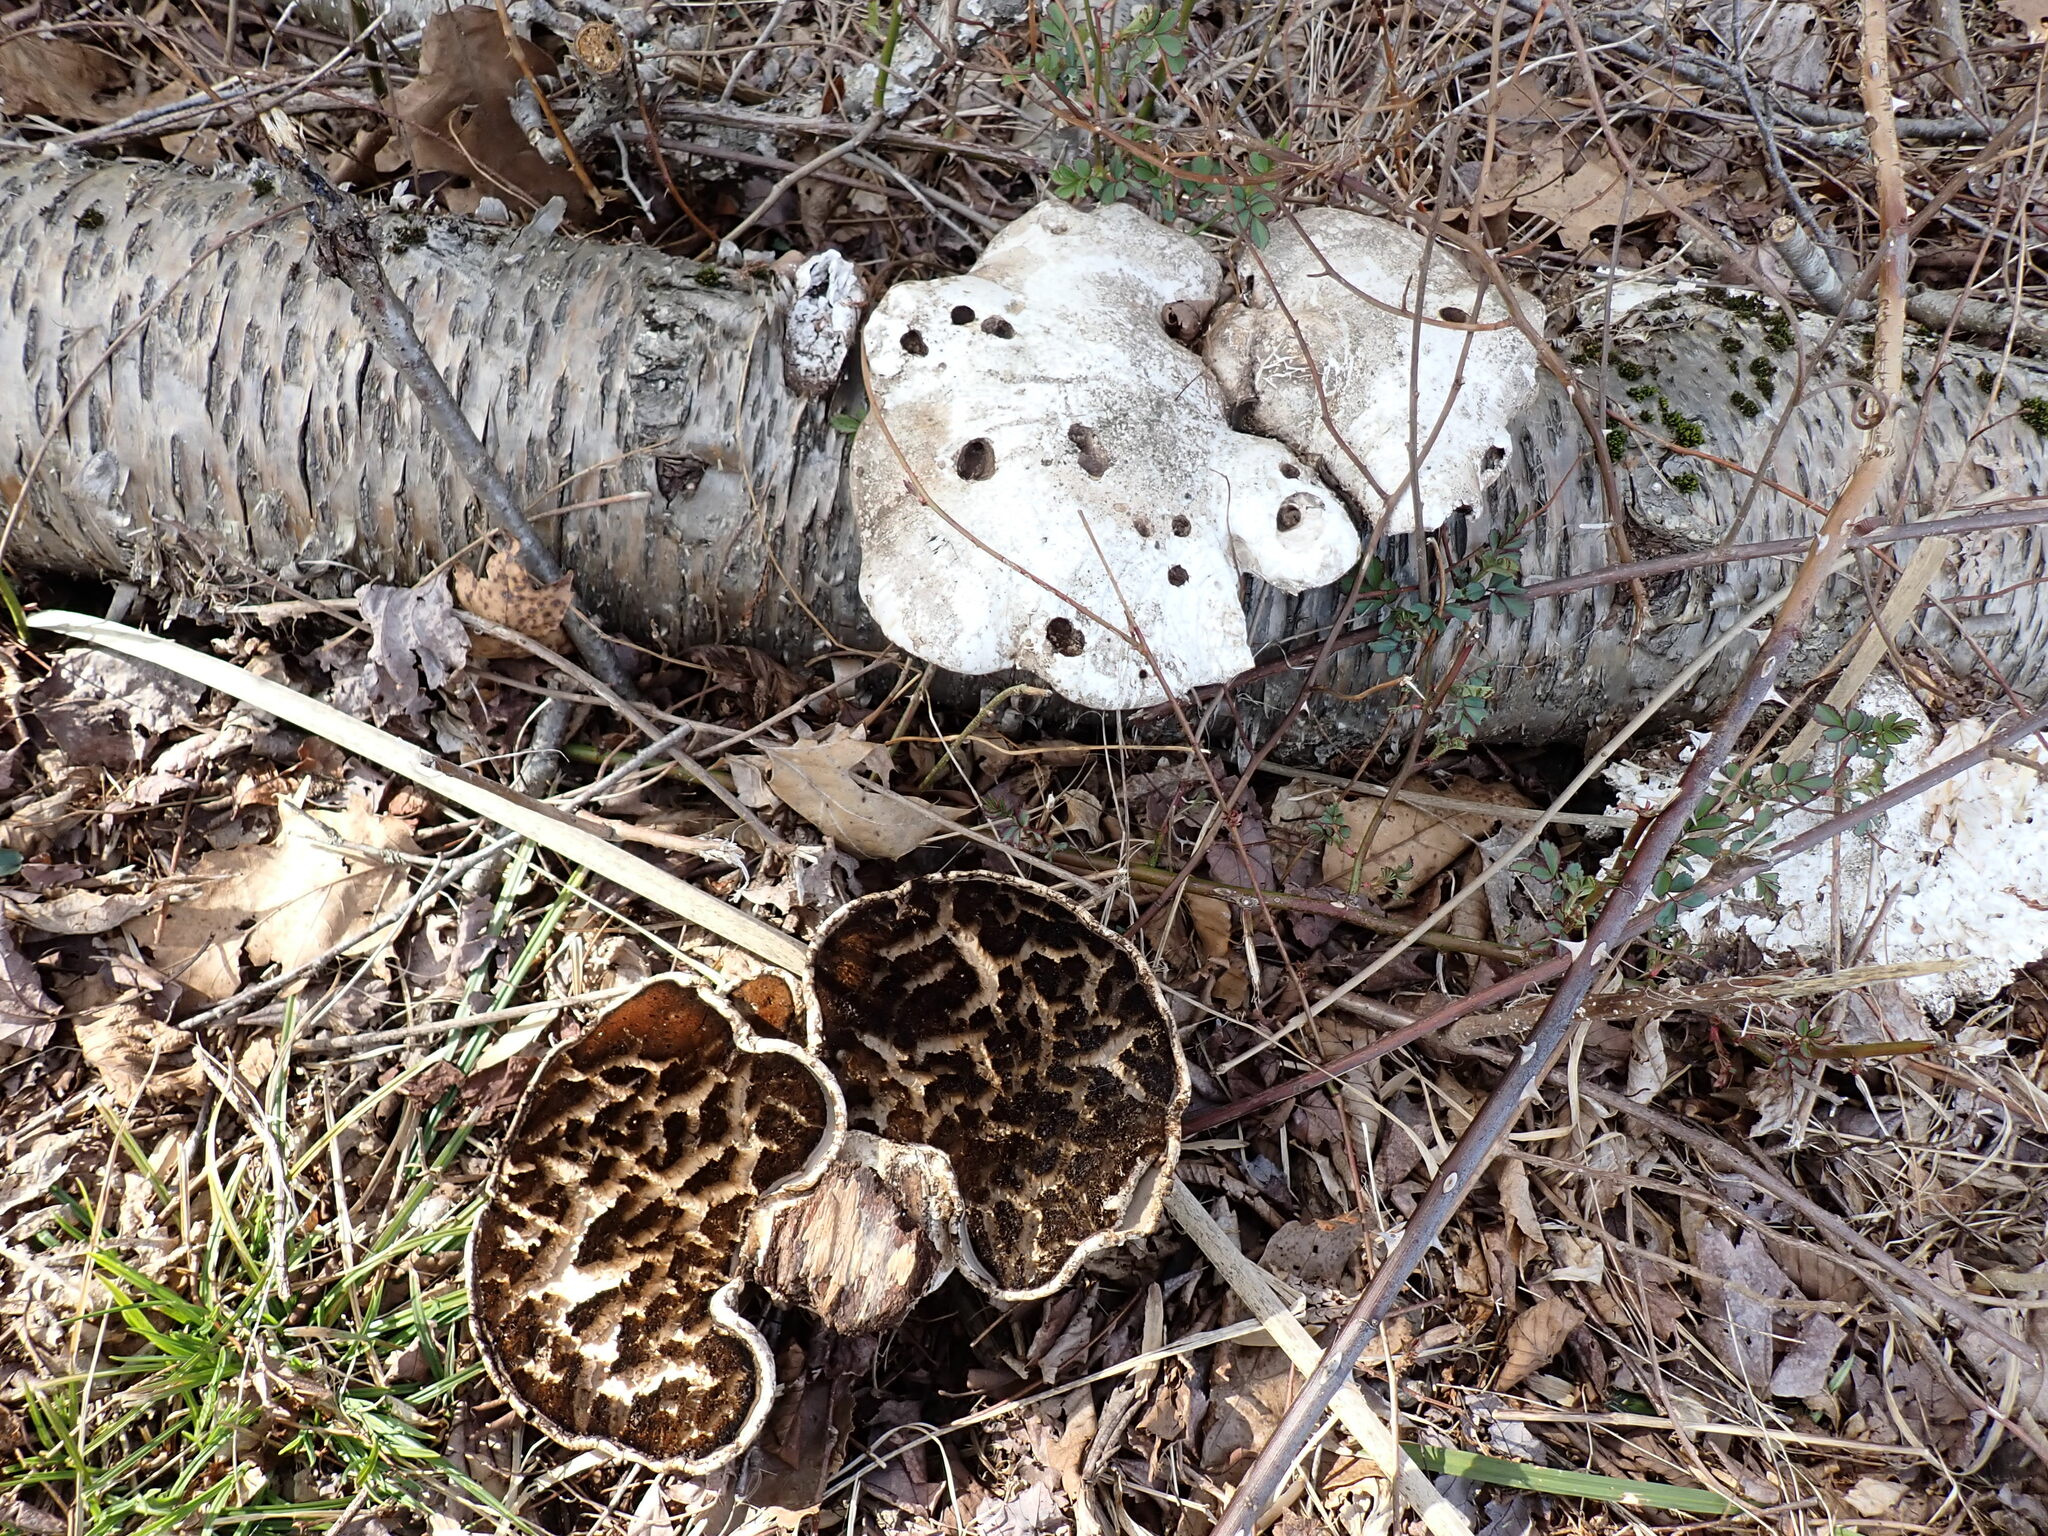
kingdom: Fungi
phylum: Basidiomycota
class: Agaricomycetes
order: Polyporales
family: Fomitopsidaceae
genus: Fomitopsis
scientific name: Fomitopsis betulina
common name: Birch polypore
